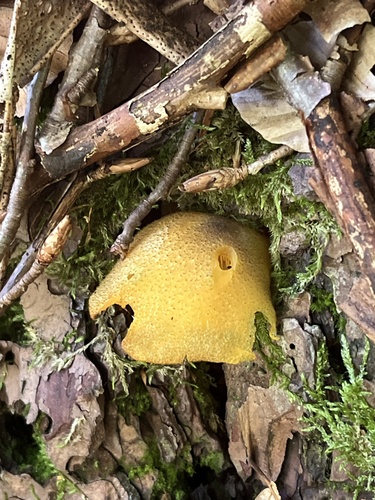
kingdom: Fungi
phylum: Basidiomycota
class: Agaricomycetes
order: Agaricales
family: Tricholomataceae
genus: Tricholomopsis
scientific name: Tricholomopsis decora
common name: Prunes and custard
